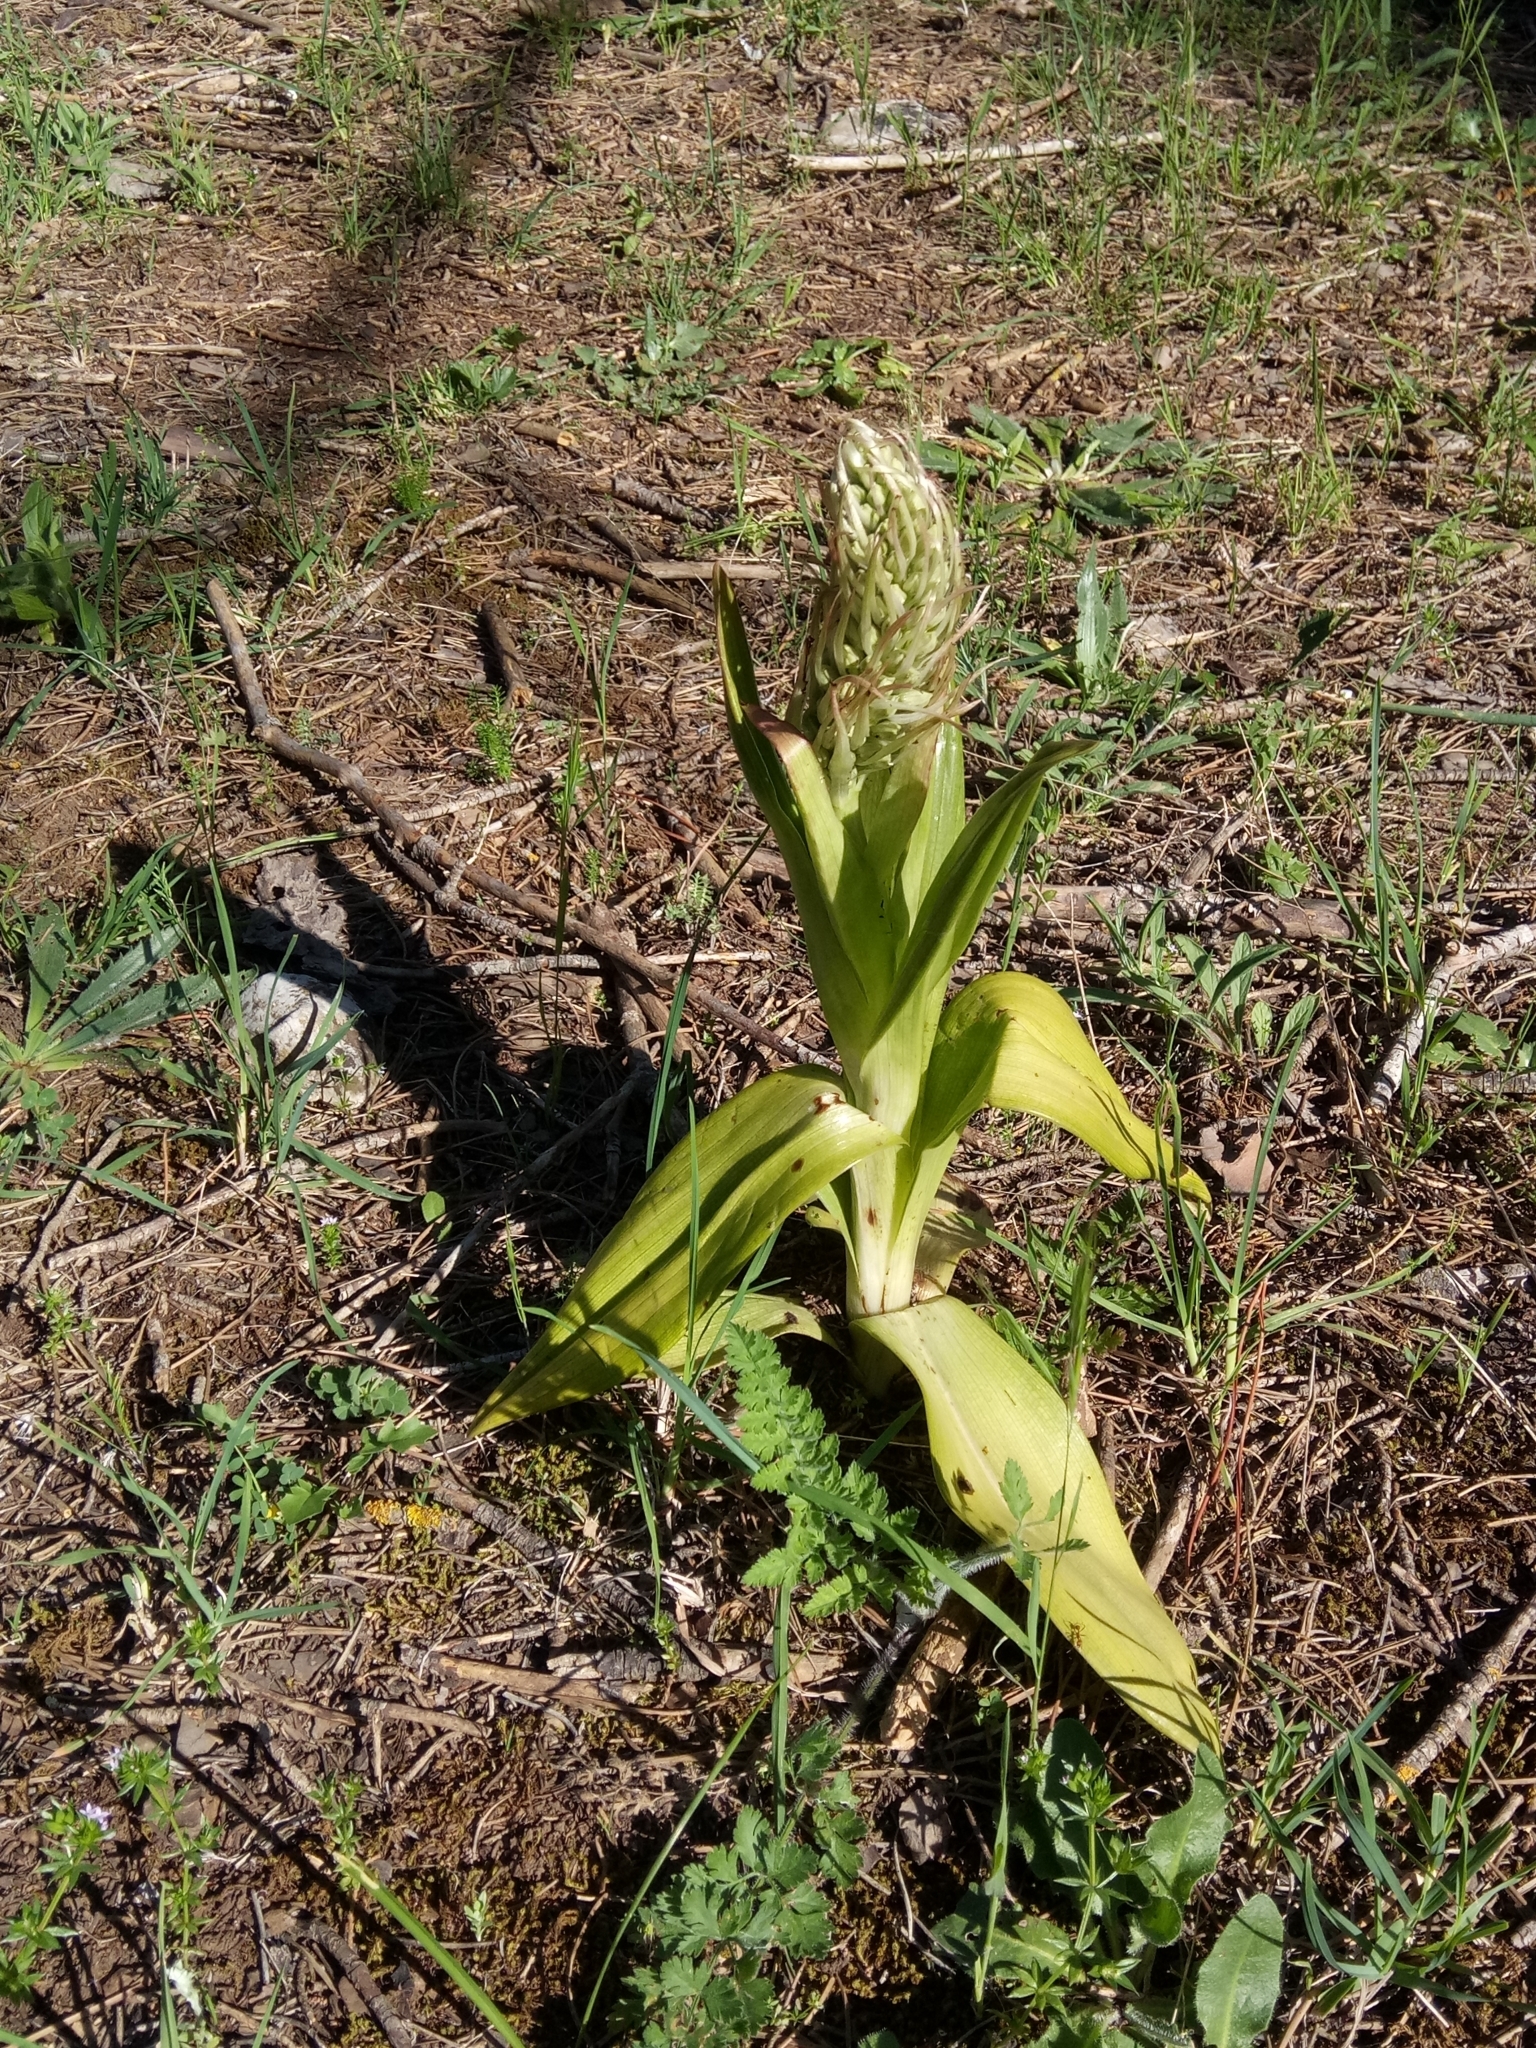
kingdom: Plantae
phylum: Tracheophyta
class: Liliopsida
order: Asparagales
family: Orchidaceae
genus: Himantoglossum
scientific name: Himantoglossum hircinum
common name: Lizard orchid
